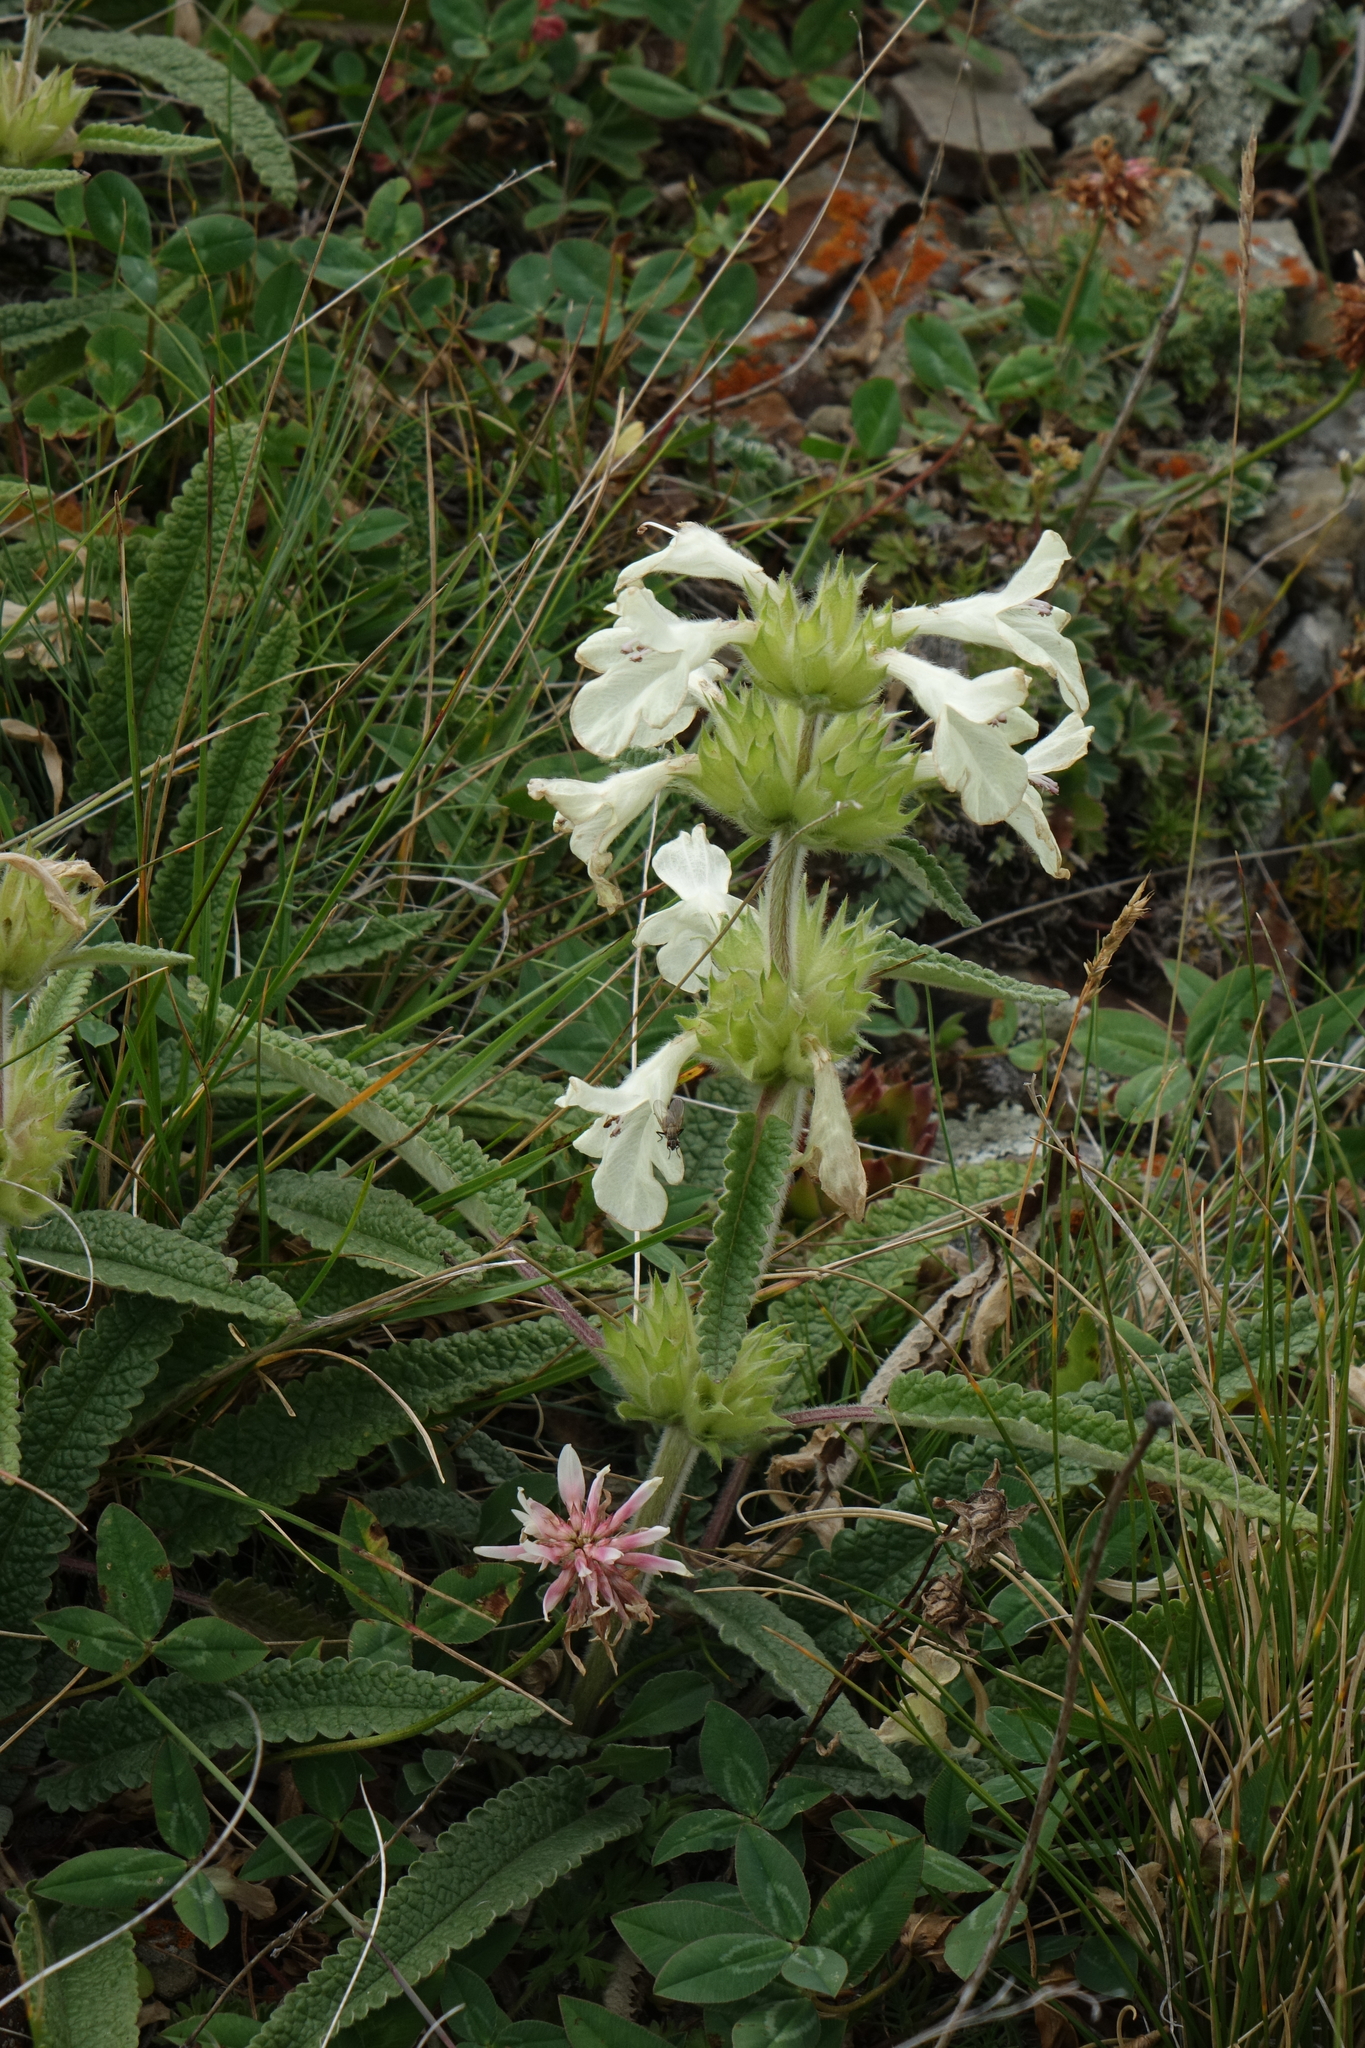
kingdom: Plantae
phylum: Tracheophyta
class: Magnoliopsida
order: Lamiales
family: Lamiaceae
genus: Betonica
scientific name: Betonica nivea
